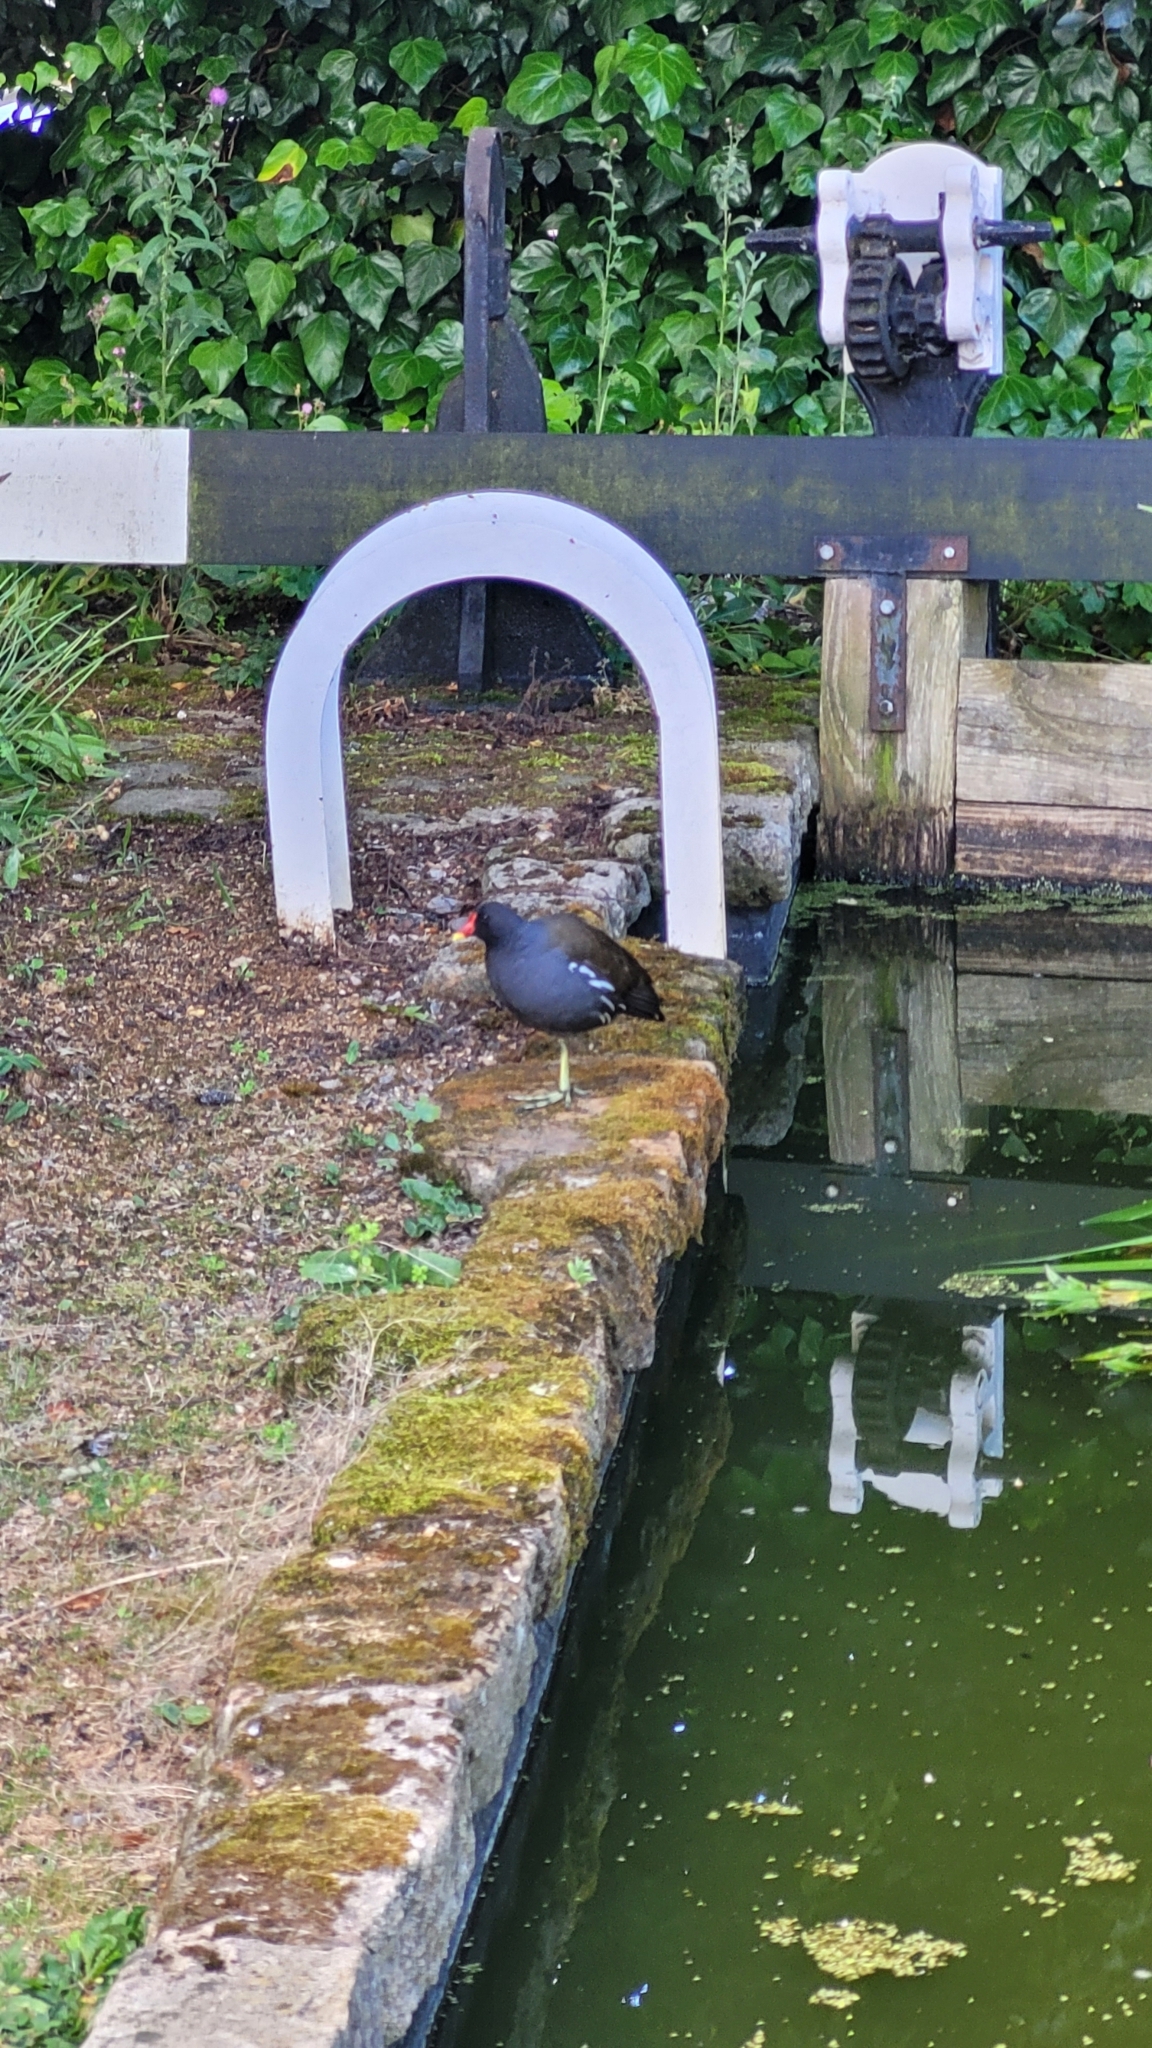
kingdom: Animalia
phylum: Chordata
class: Aves
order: Gruiformes
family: Rallidae
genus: Gallinula
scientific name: Gallinula chloropus
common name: Common moorhen
